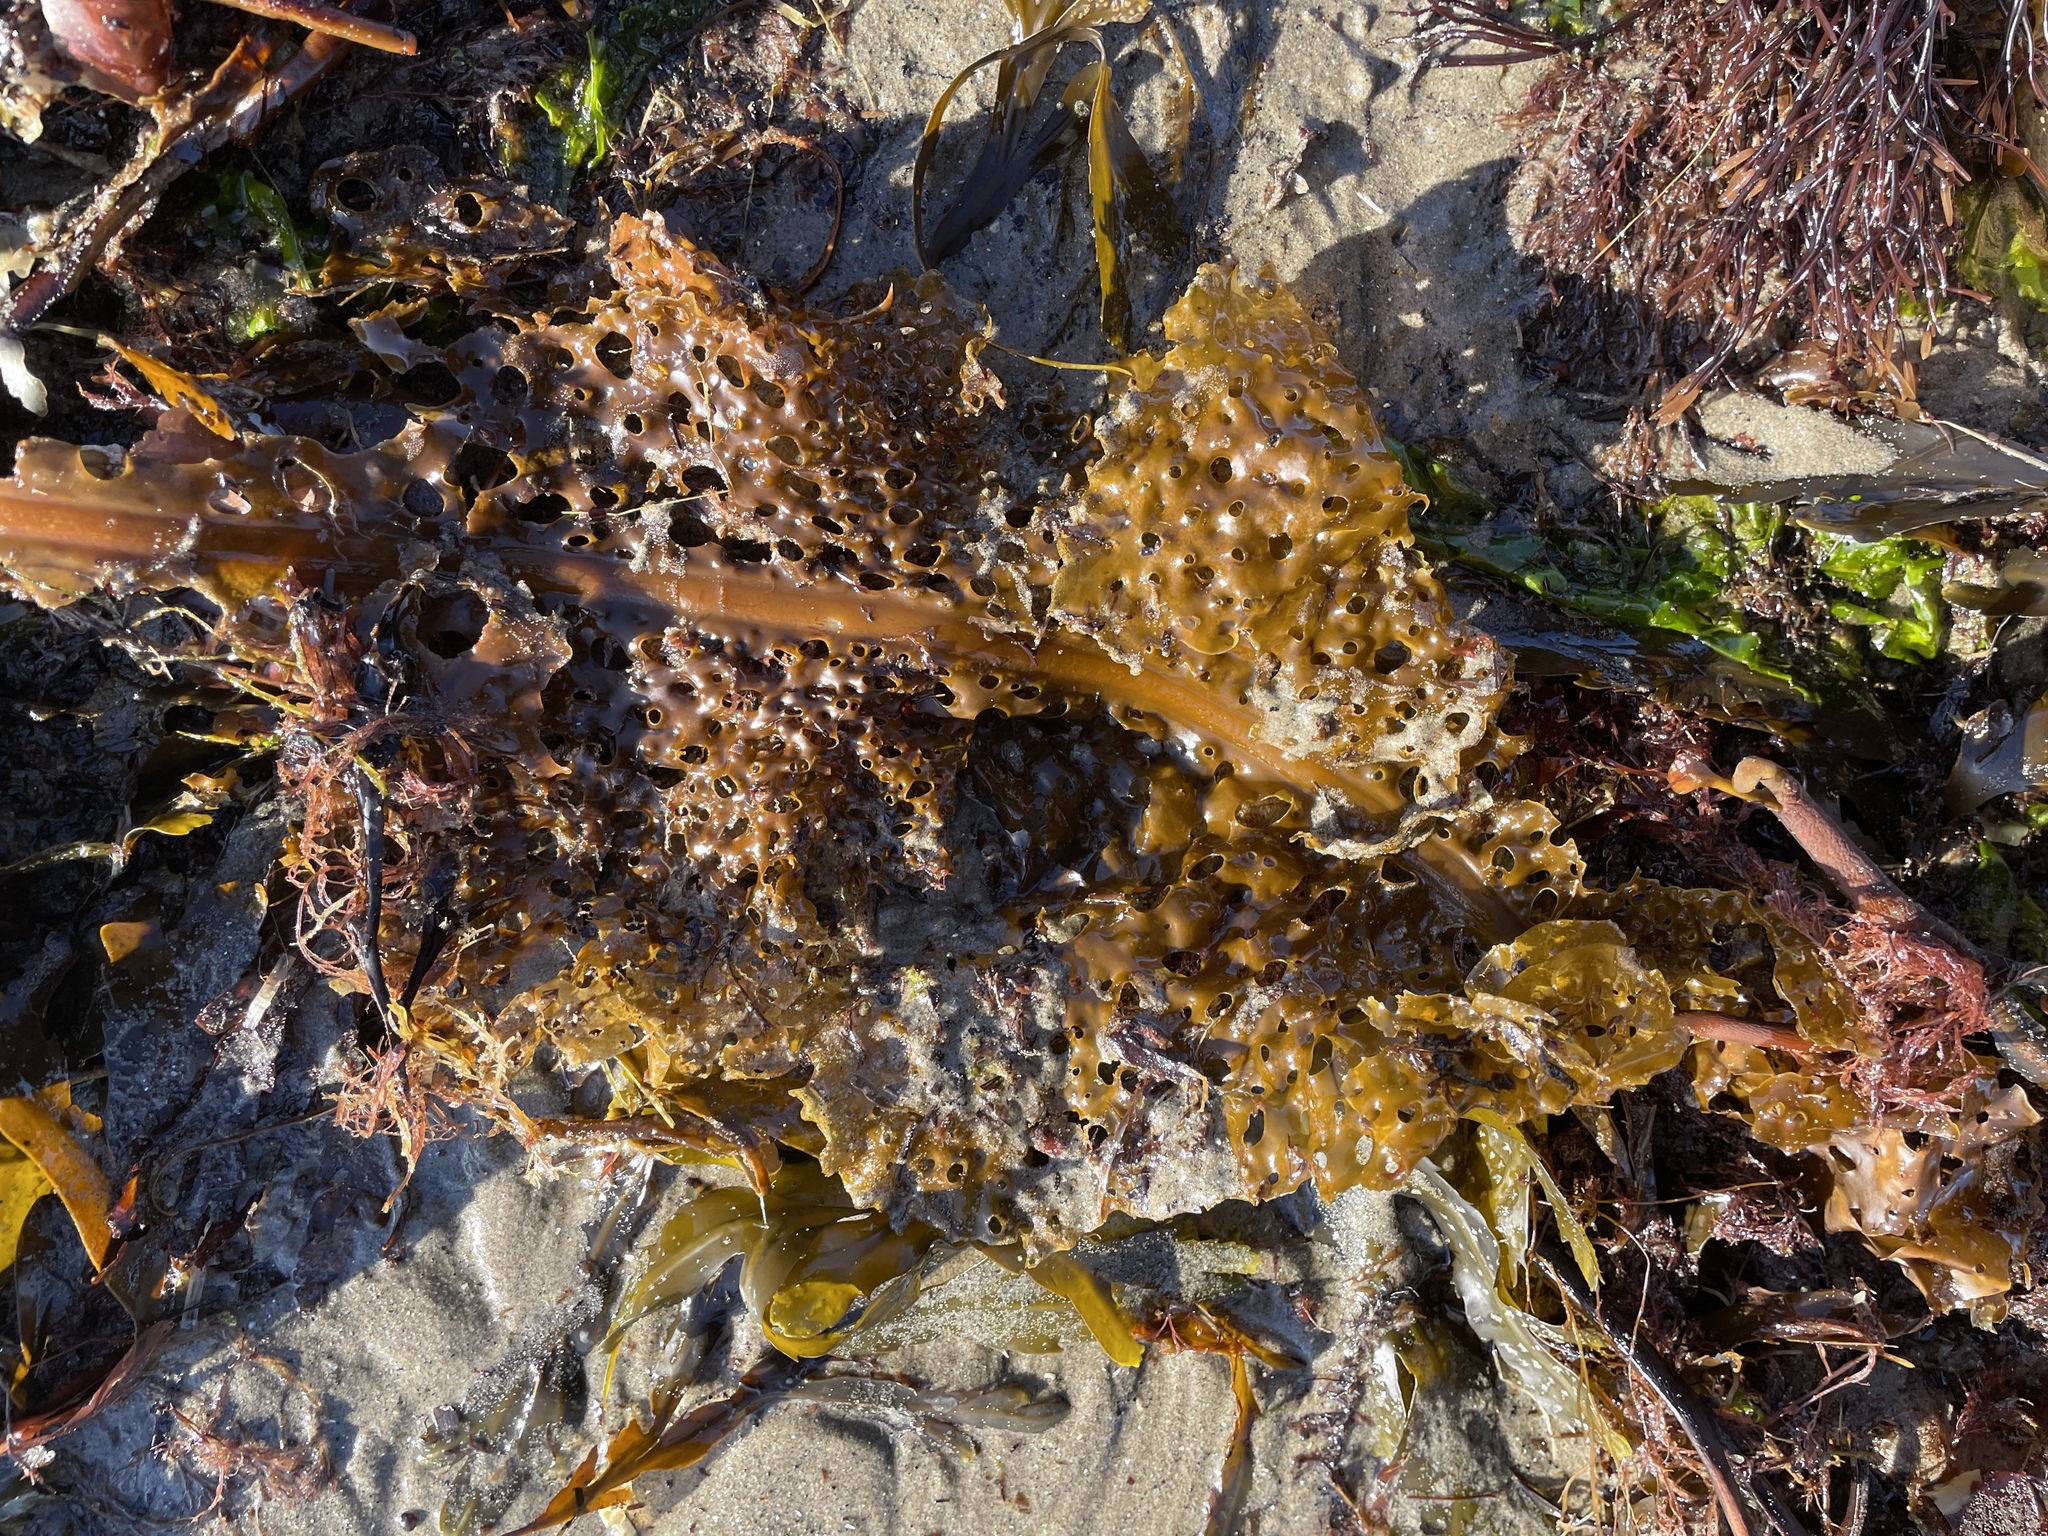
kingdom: Chromista
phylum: Ochrophyta
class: Phaeophyceae
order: Laminariales
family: Costariaceae
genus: Agarum
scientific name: Agarum clathratum
